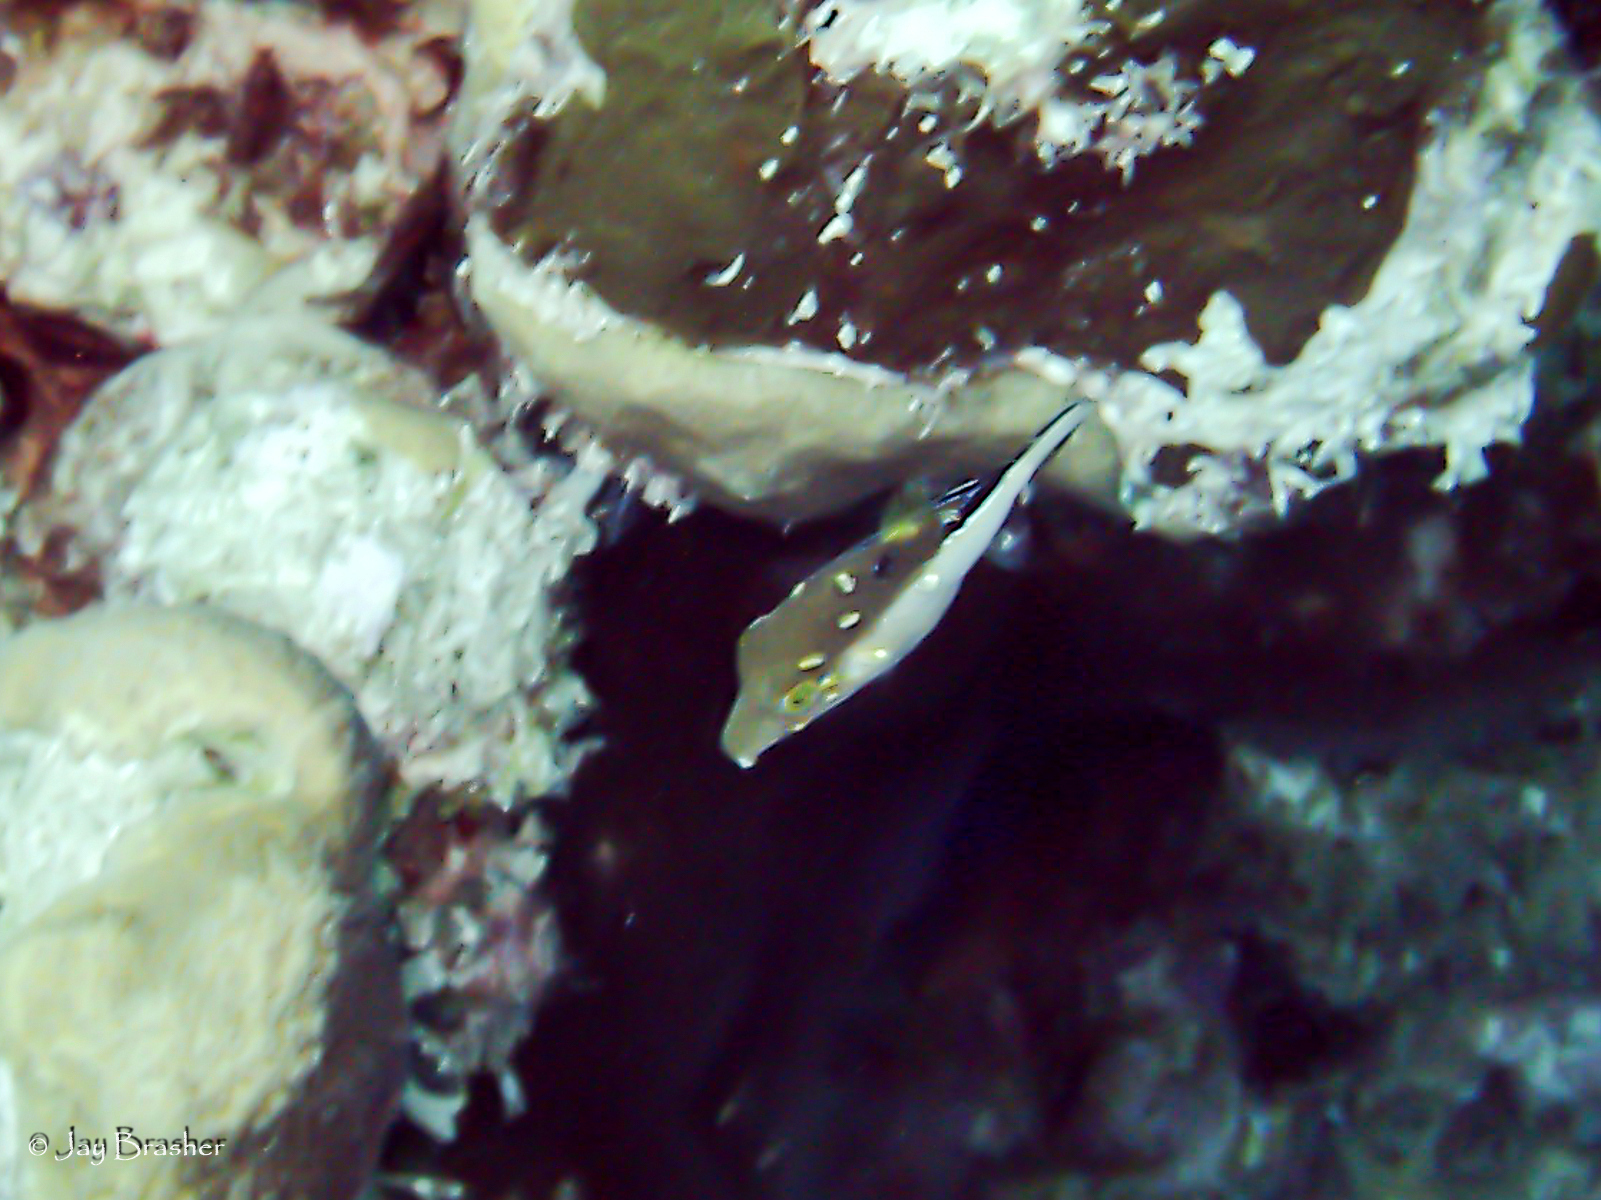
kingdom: Animalia
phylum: Chordata
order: Tetraodontiformes
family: Tetraodontidae
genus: Canthigaster
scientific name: Canthigaster rostrata
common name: Caribbean sharpnose-puffer
